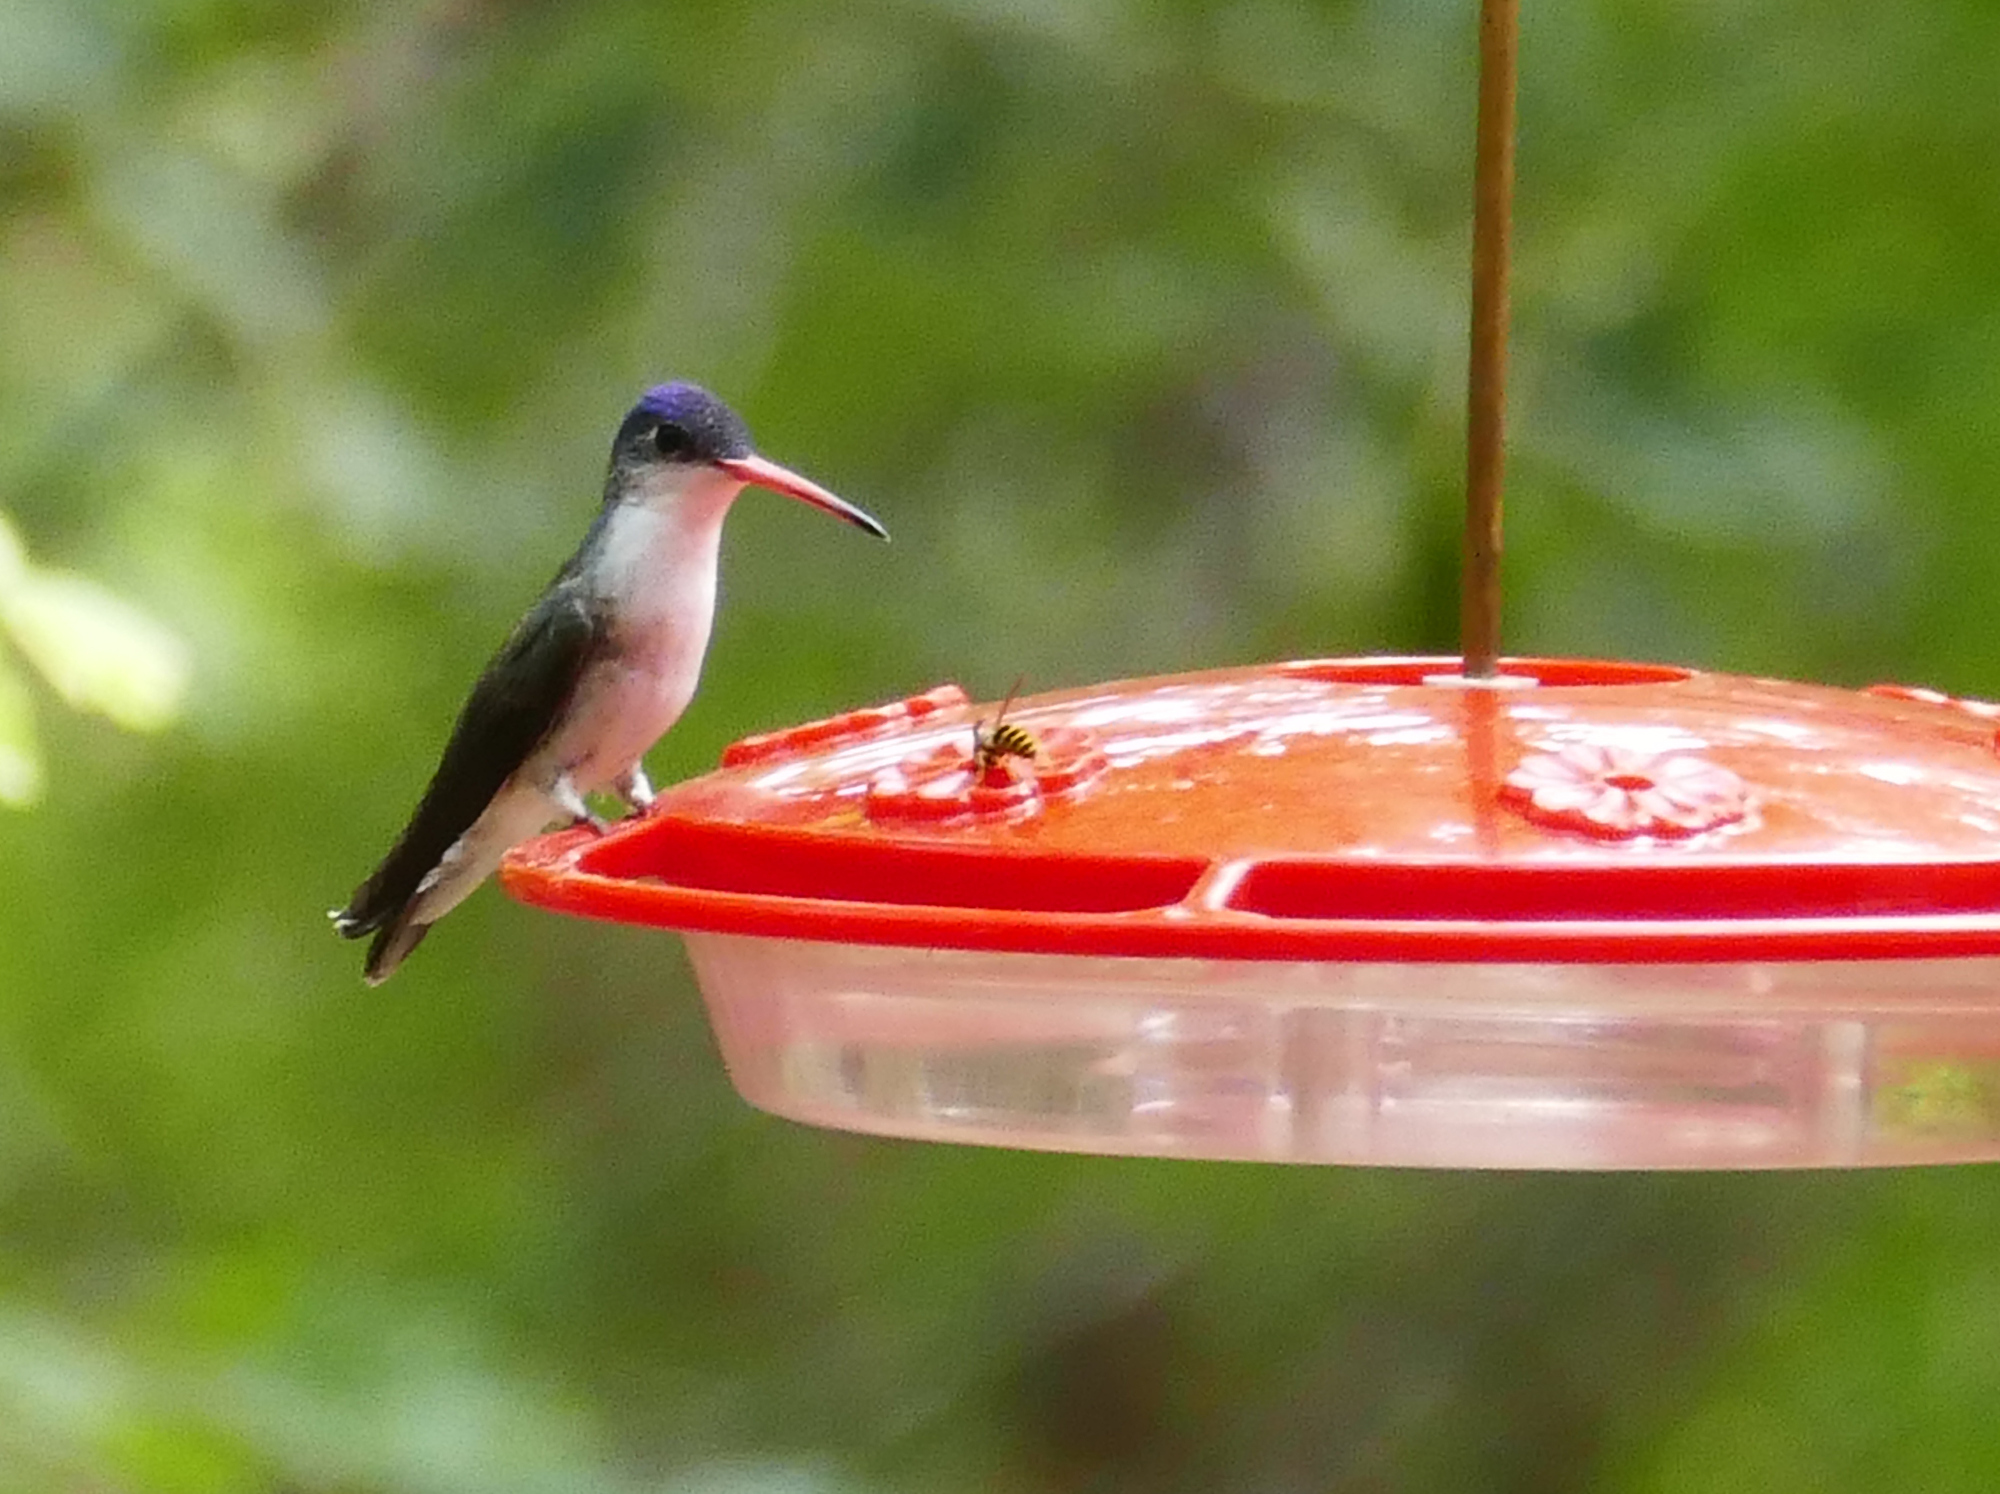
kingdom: Animalia
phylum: Chordata
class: Aves
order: Apodiformes
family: Trochilidae
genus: Leucolia
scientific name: Leucolia violiceps
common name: Violet-crowned hummingbird
